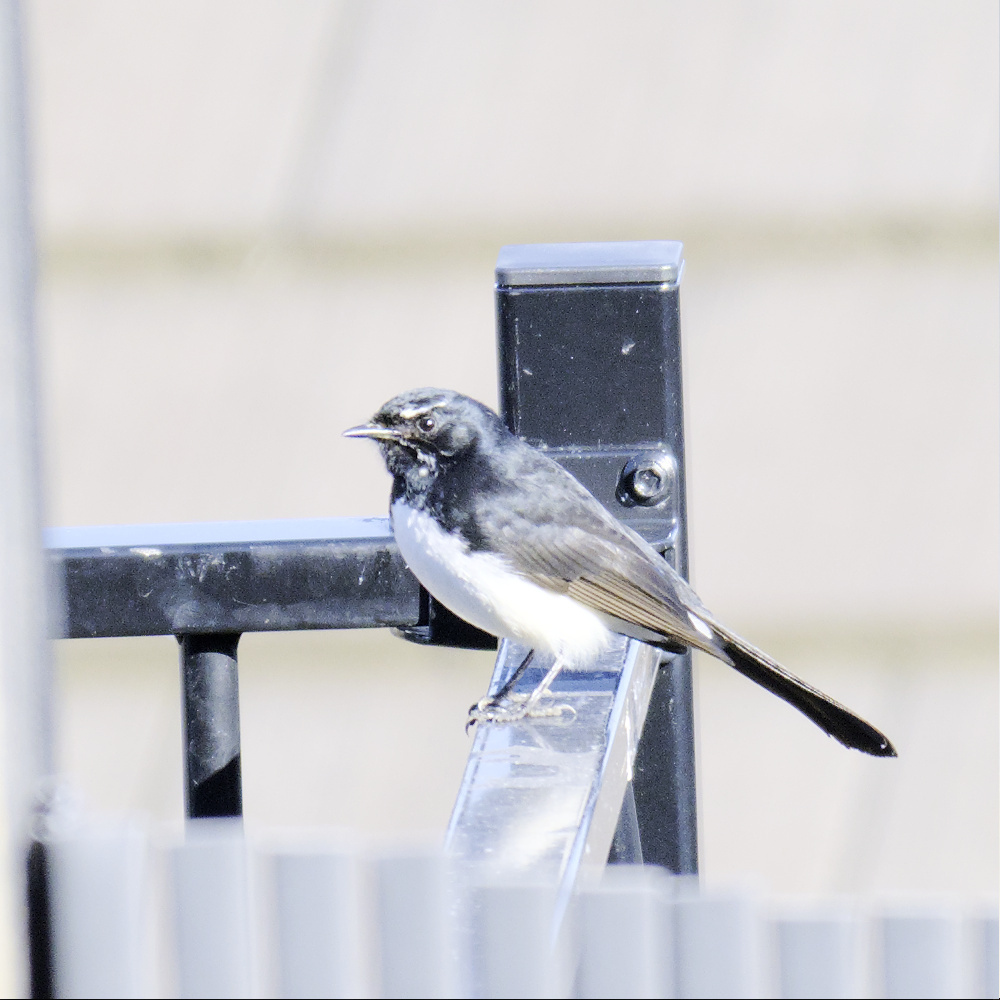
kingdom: Animalia
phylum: Chordata
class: Aves
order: Passeriformes
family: Rhipiduridae
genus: Rhipidura
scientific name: Rhipidura leucophrys
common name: Willie wagtail
